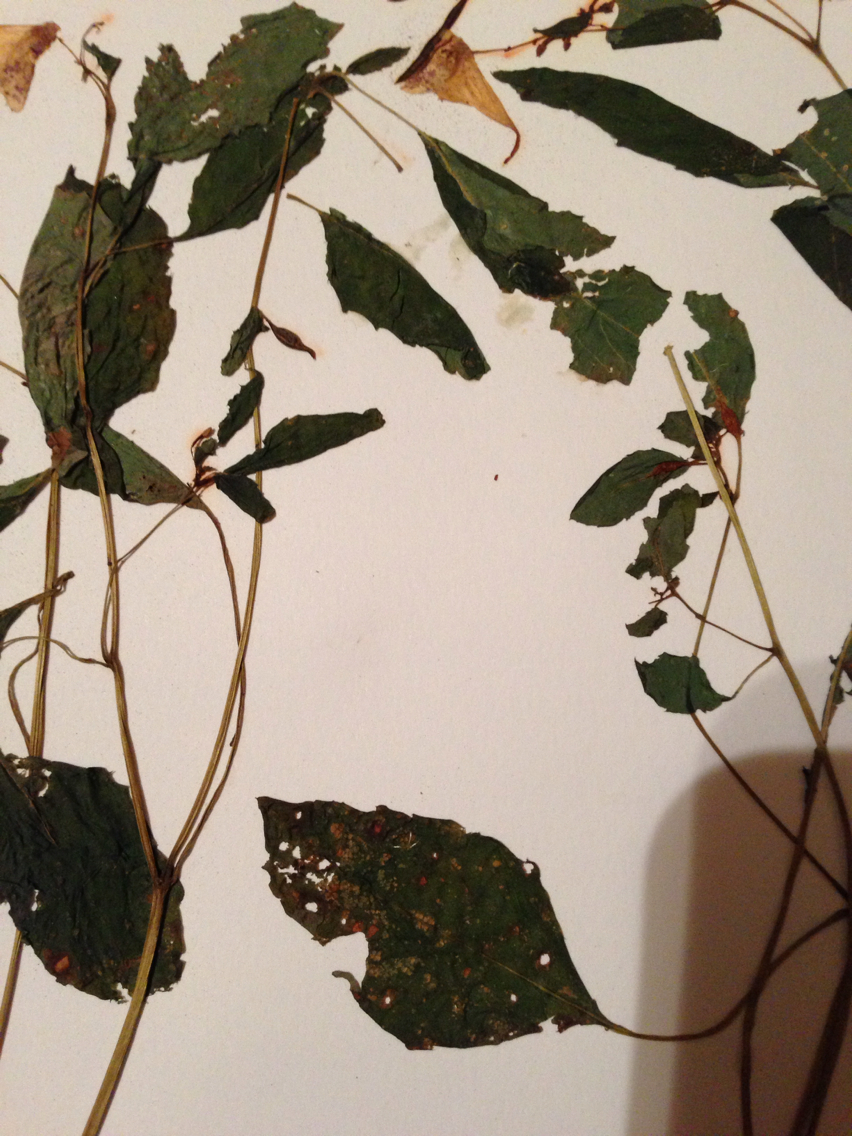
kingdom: Plantae
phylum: Tracheophyta
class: Magnoliopsida
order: Ericales
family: Balsaminaceae
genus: Impatiens
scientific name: Impatiens capensis
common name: Orange balsam
